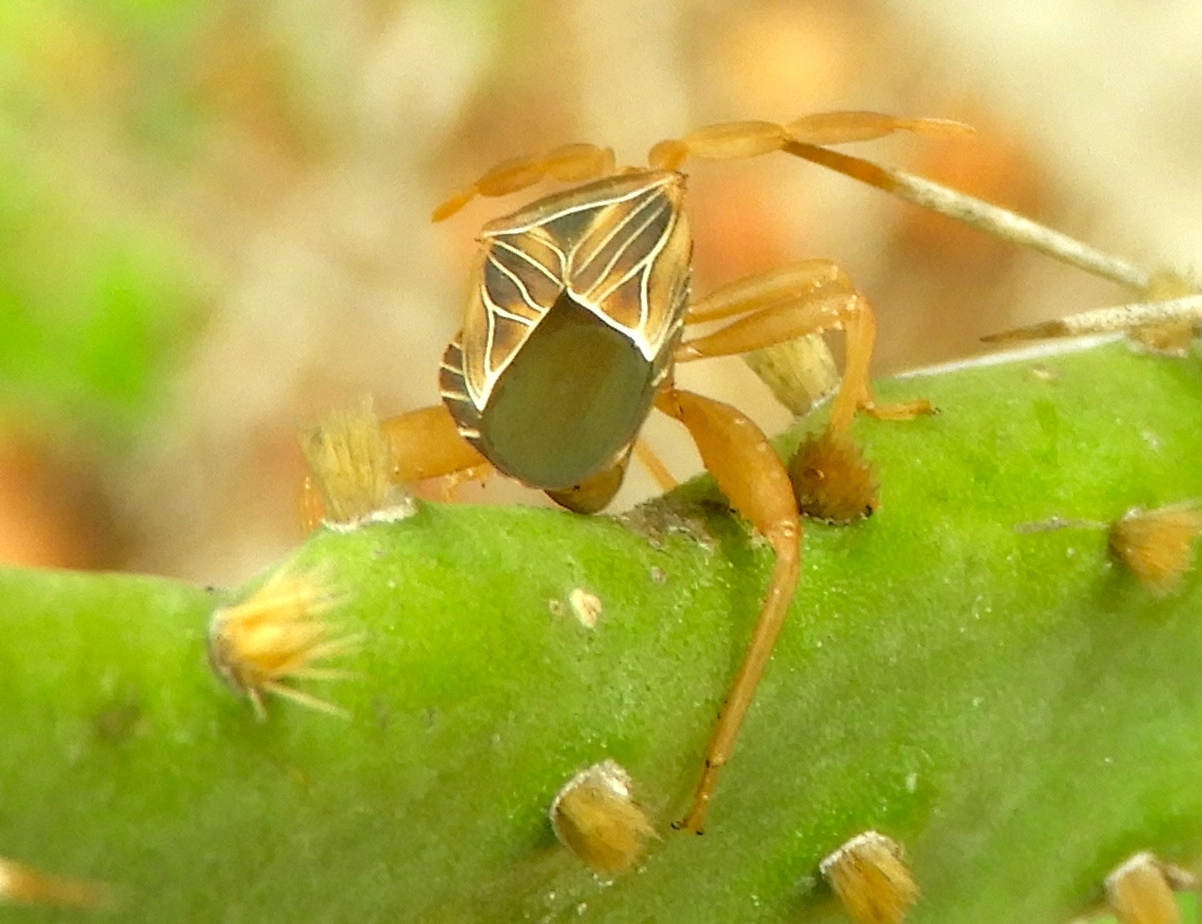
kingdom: Animalia
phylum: Arthropoda
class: Insecta
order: Hemiptera
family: Coreidae
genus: Chelinidea
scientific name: Chelinidea
